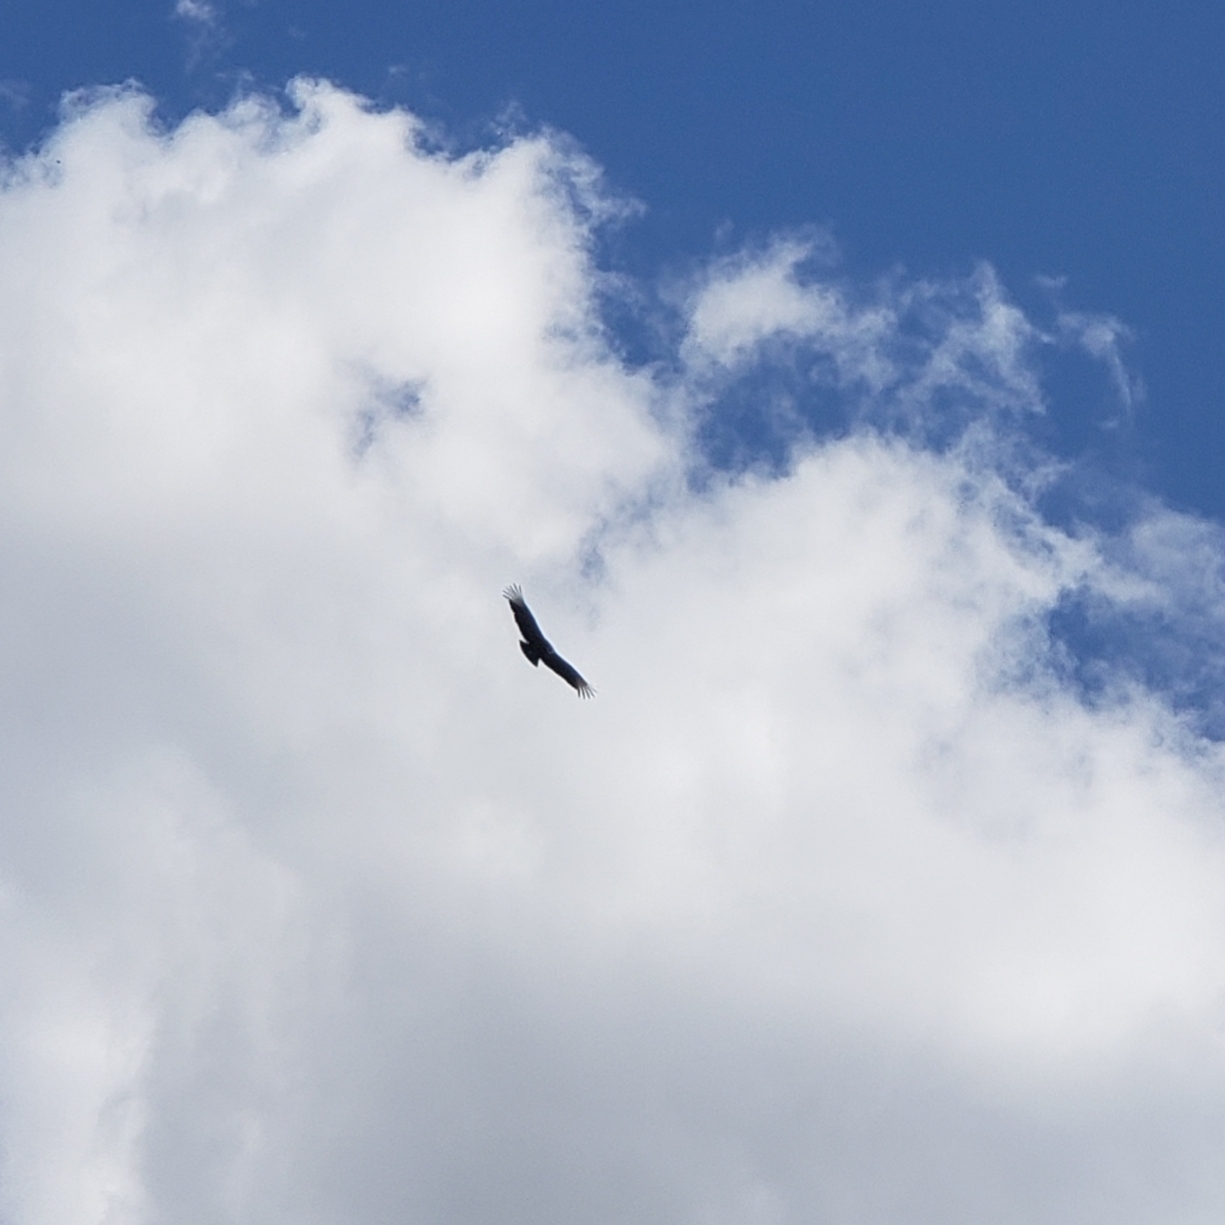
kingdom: Animalia
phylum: Chordata
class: Aves
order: Accipitriformes
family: Cathartidae
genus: Coragyps
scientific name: Coragyps atratus
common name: Black vulture
